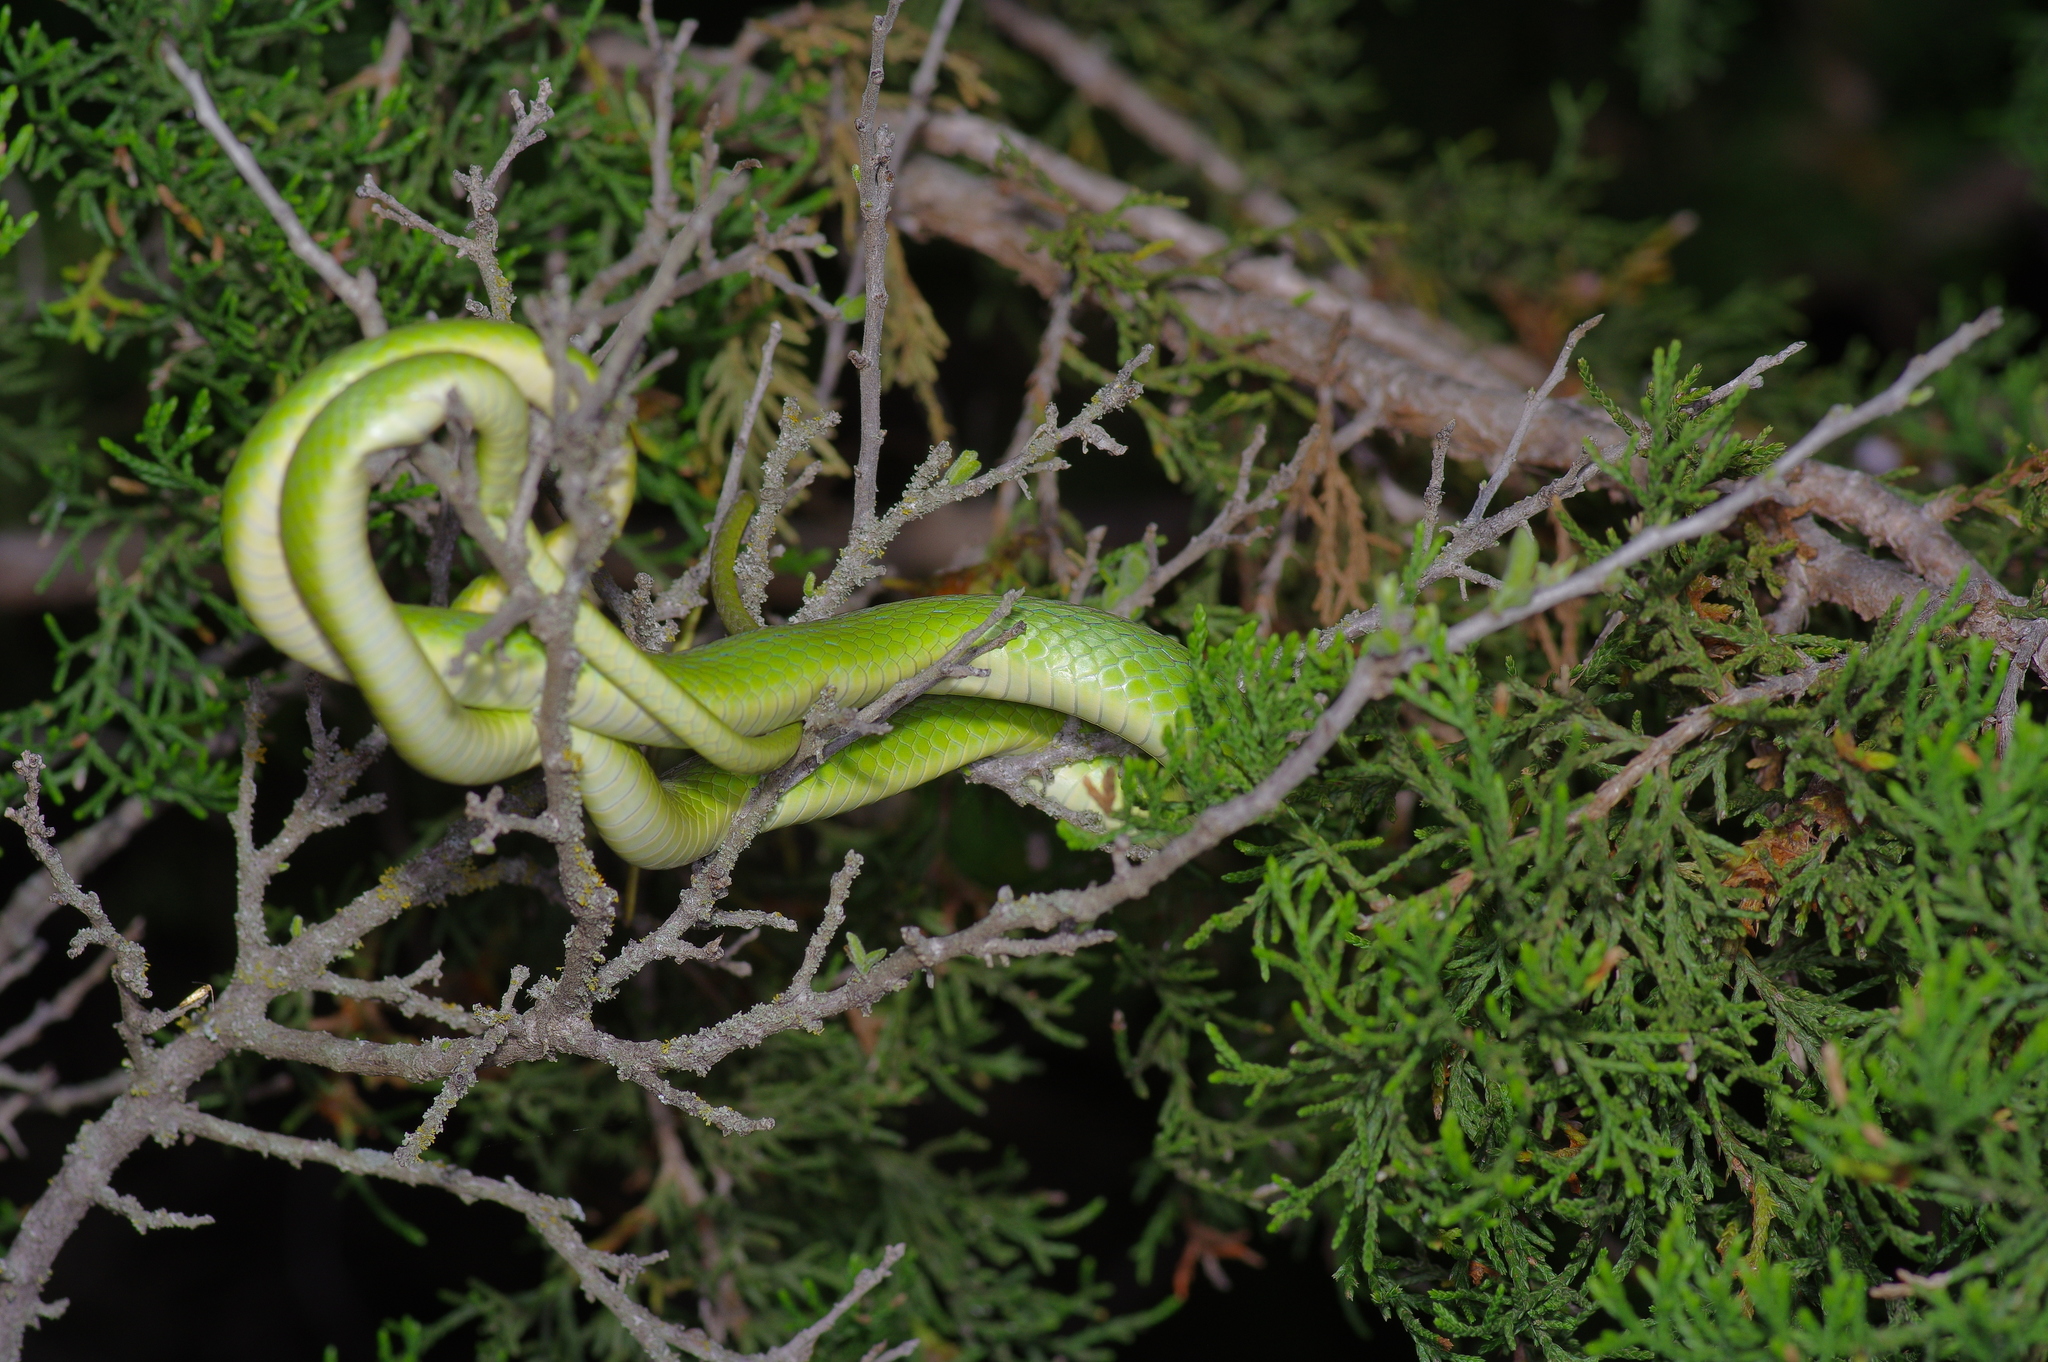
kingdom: Animalia
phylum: Chordata
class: Squamata
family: Colubridae
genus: Opheodrys
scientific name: Opheodrys aestivus
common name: Rough greensnake
